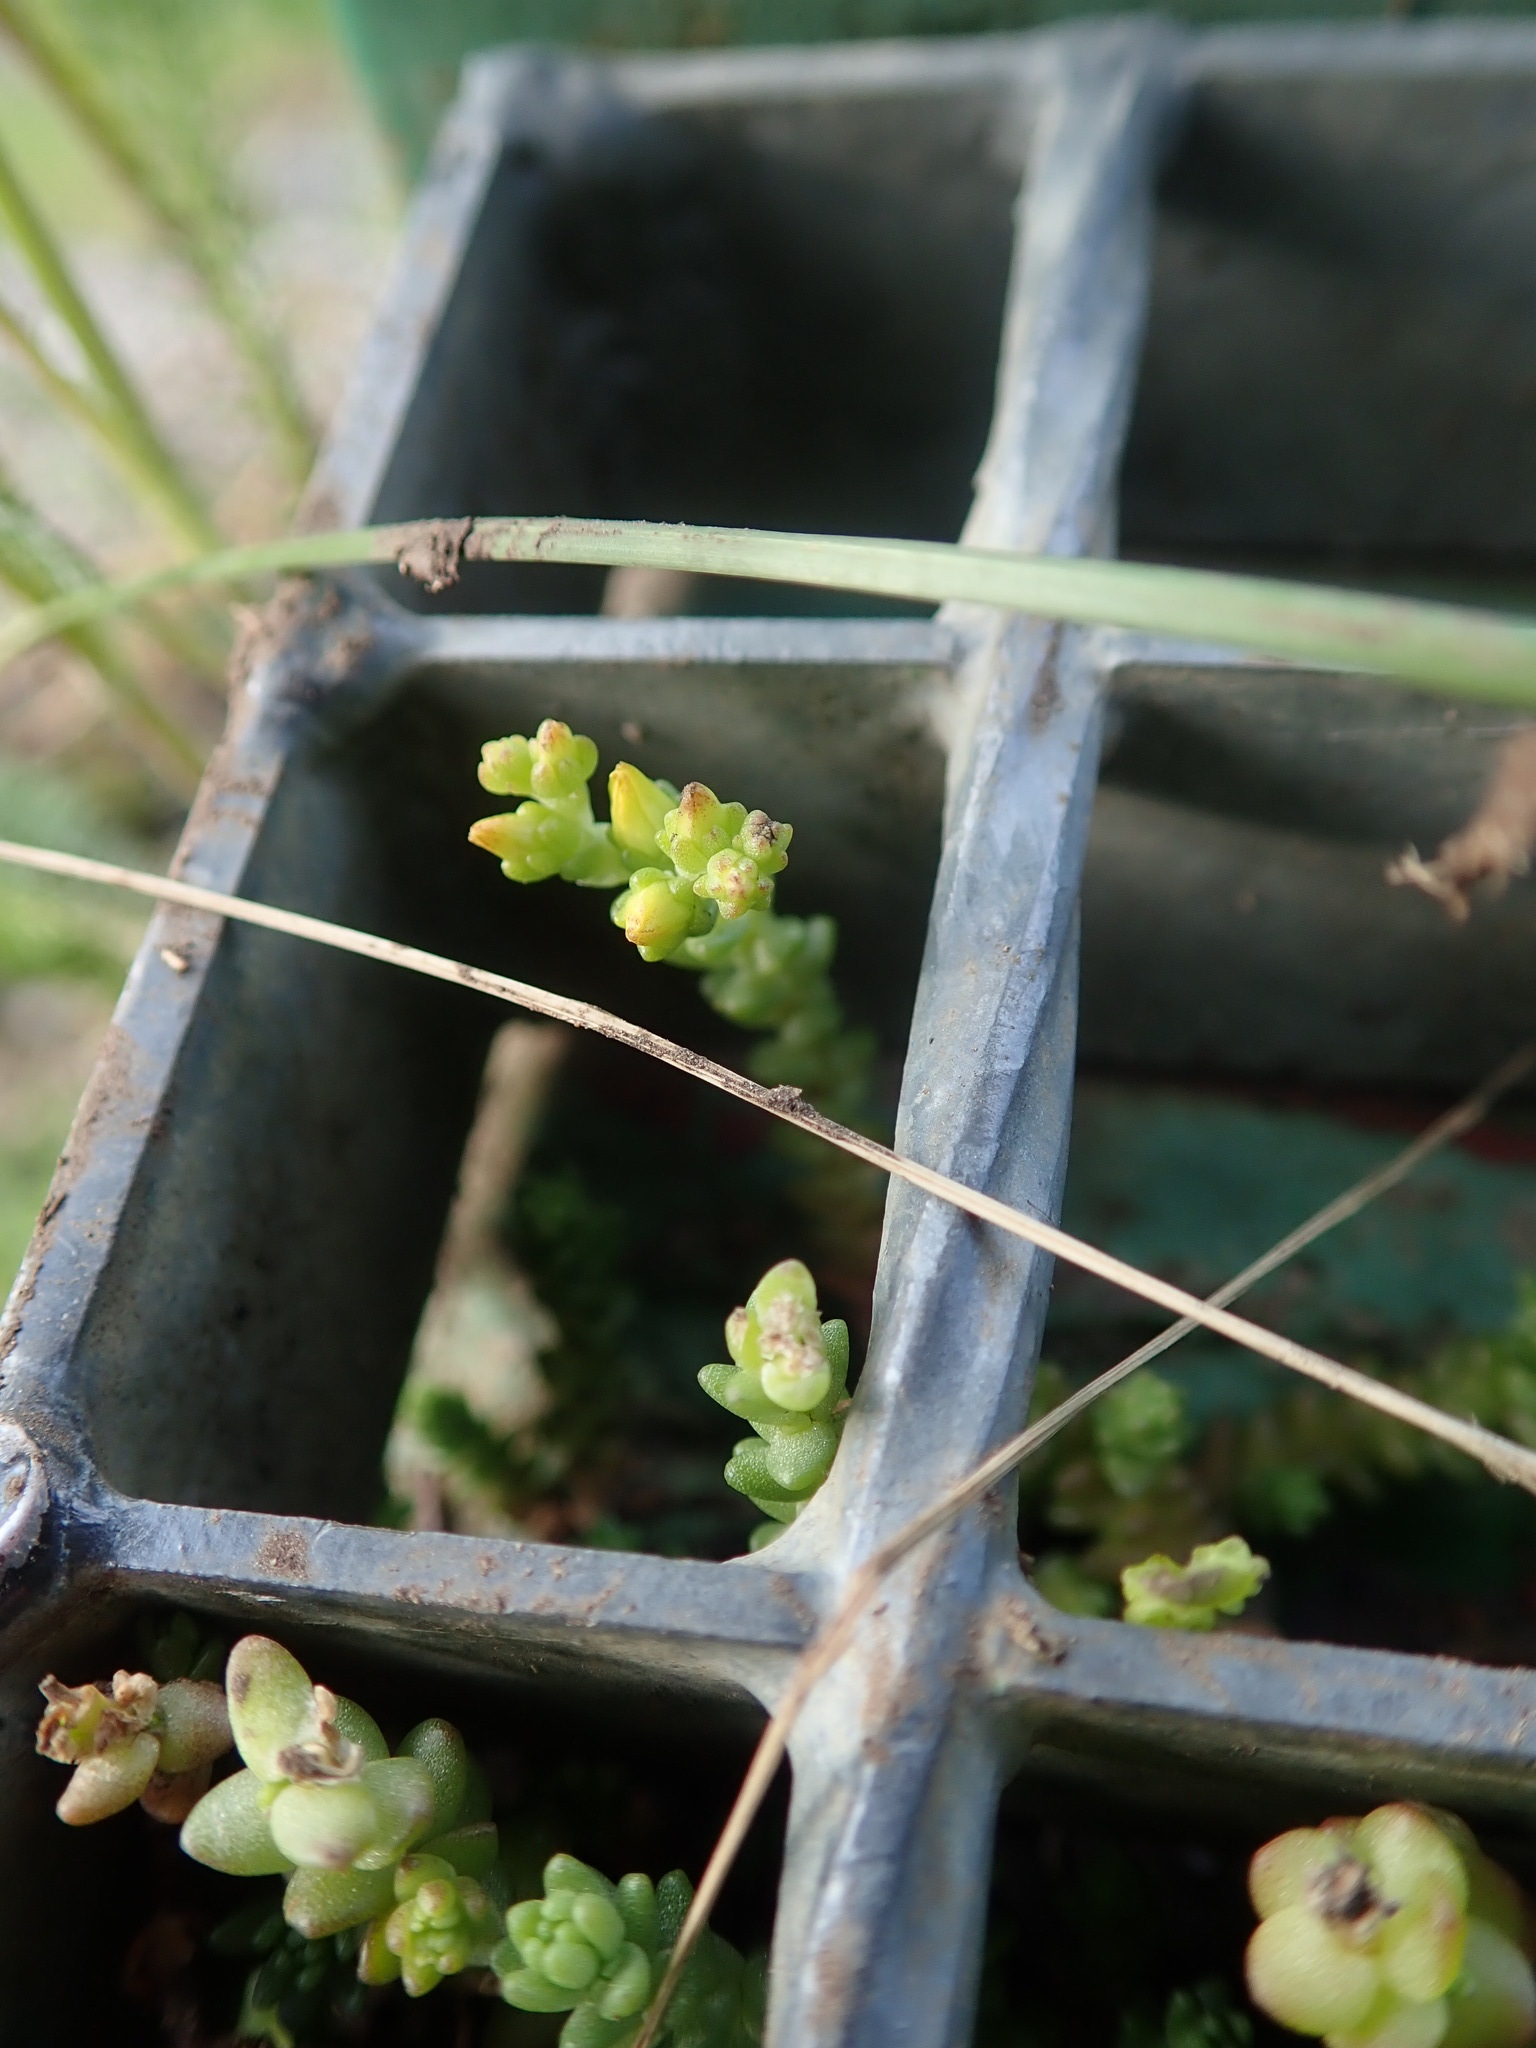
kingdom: Plantae
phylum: Tracheophyta
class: Magnoliopsida
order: Saxifragales
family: Crassulaceae
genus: Sedum
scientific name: Sedum acre
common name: Biting stonecrop
